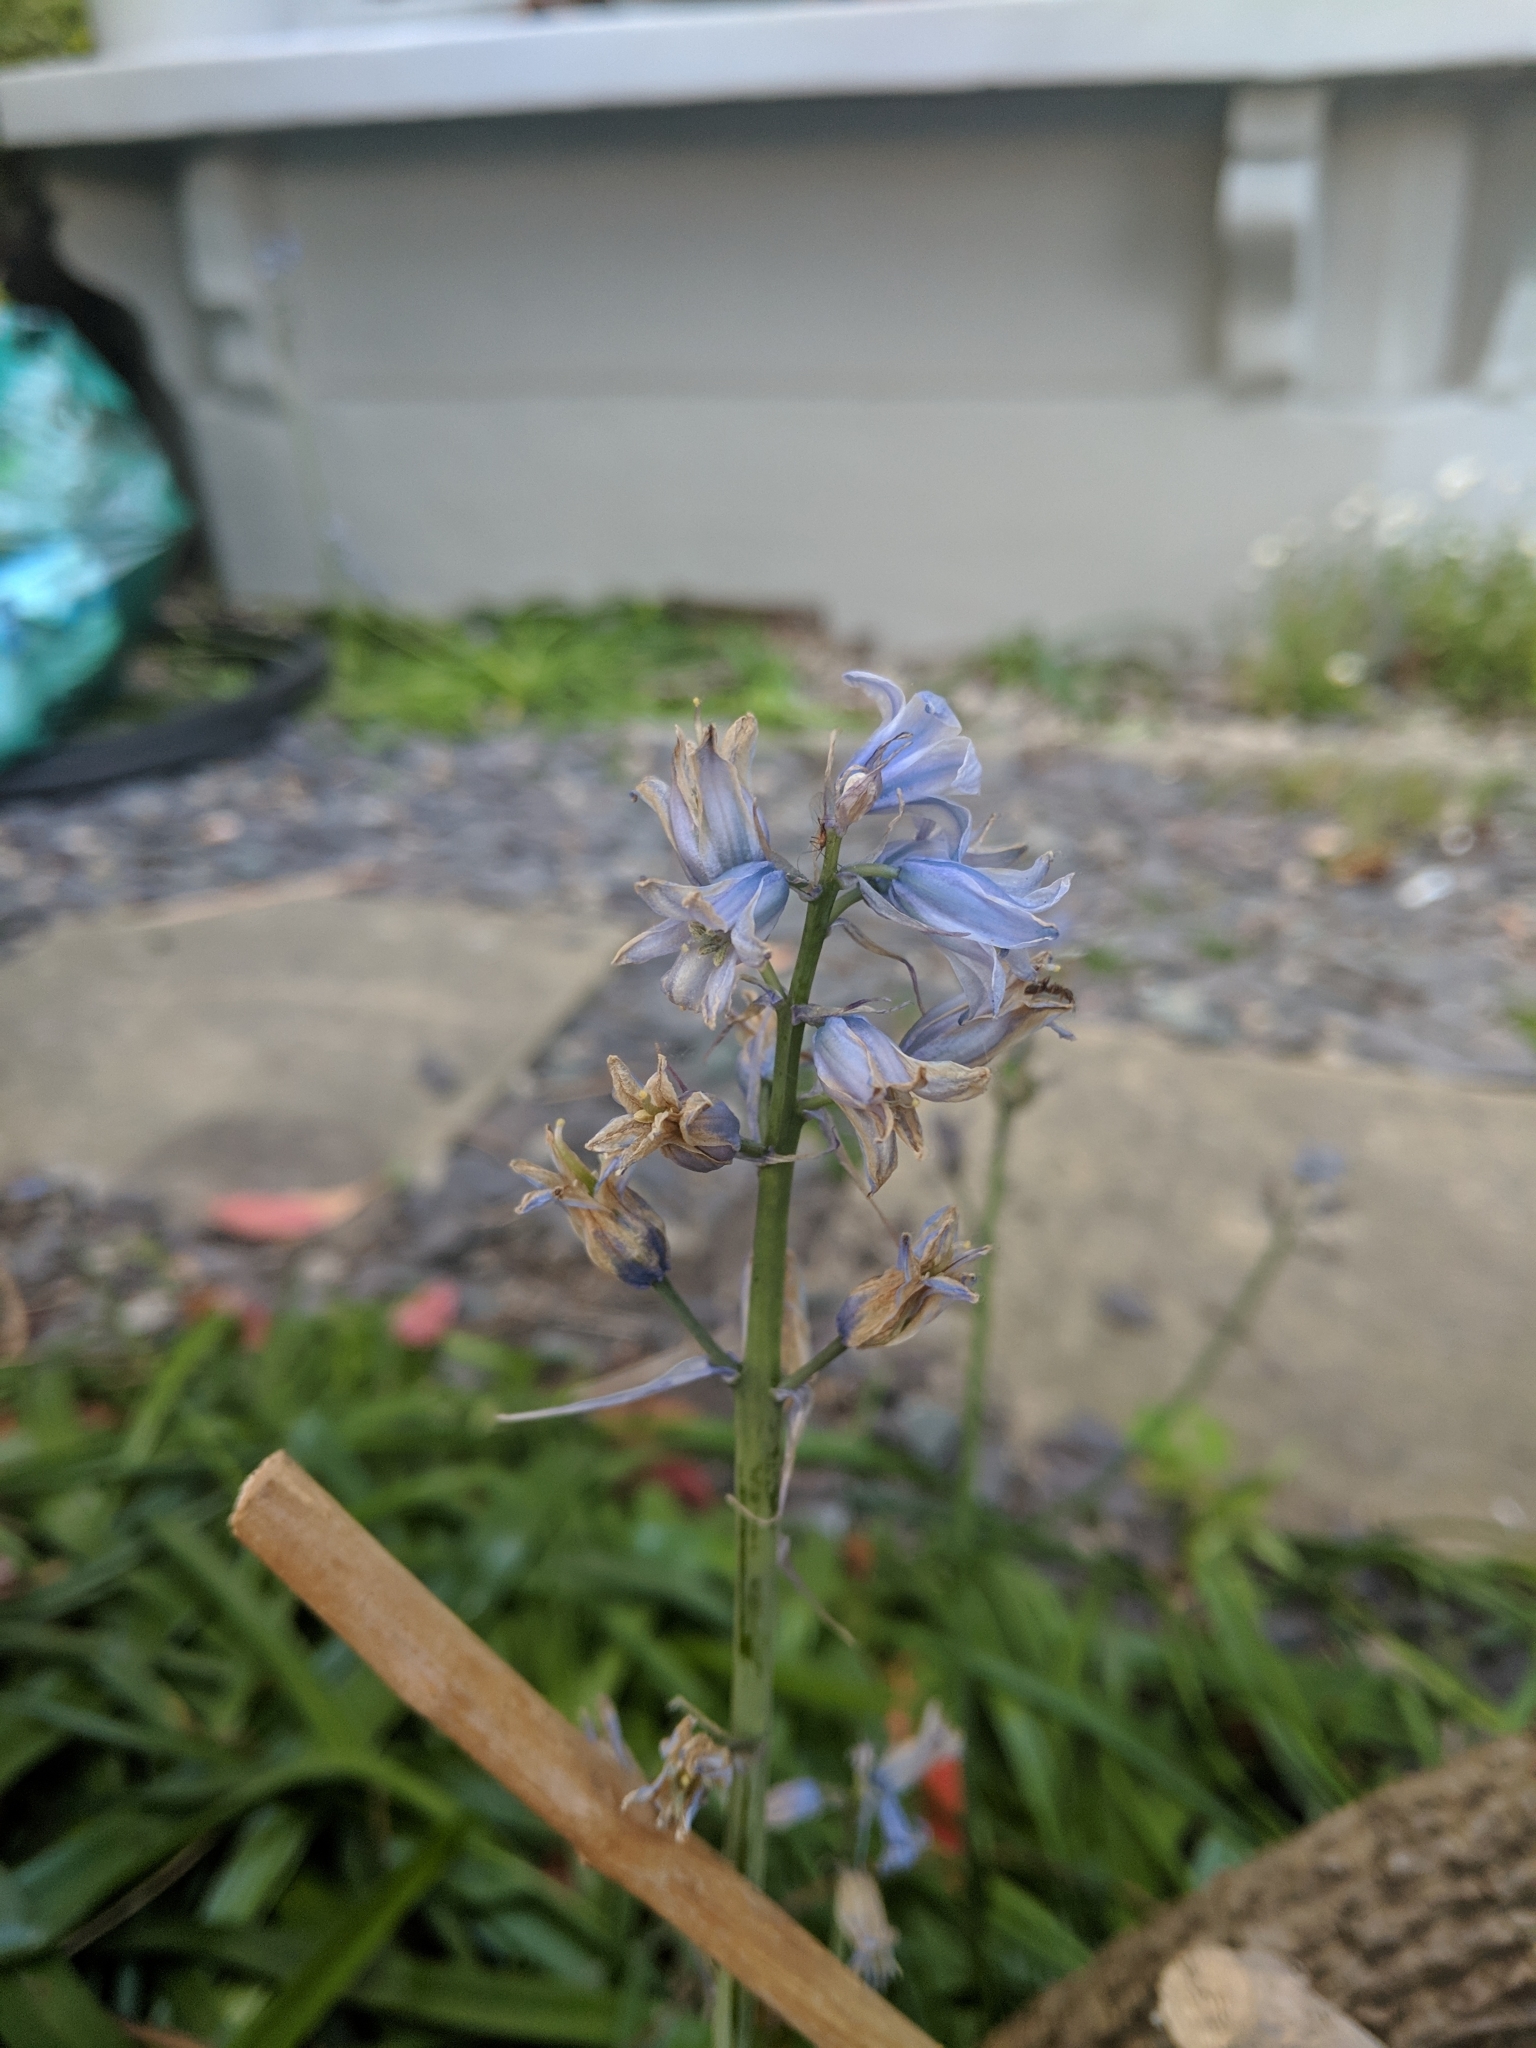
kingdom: Fungi
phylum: Basidiomycota
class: Pucciniomycetes
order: Pucciniales
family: Pucciniaceae
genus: Uromyces
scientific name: Uromyces hyacinthi
